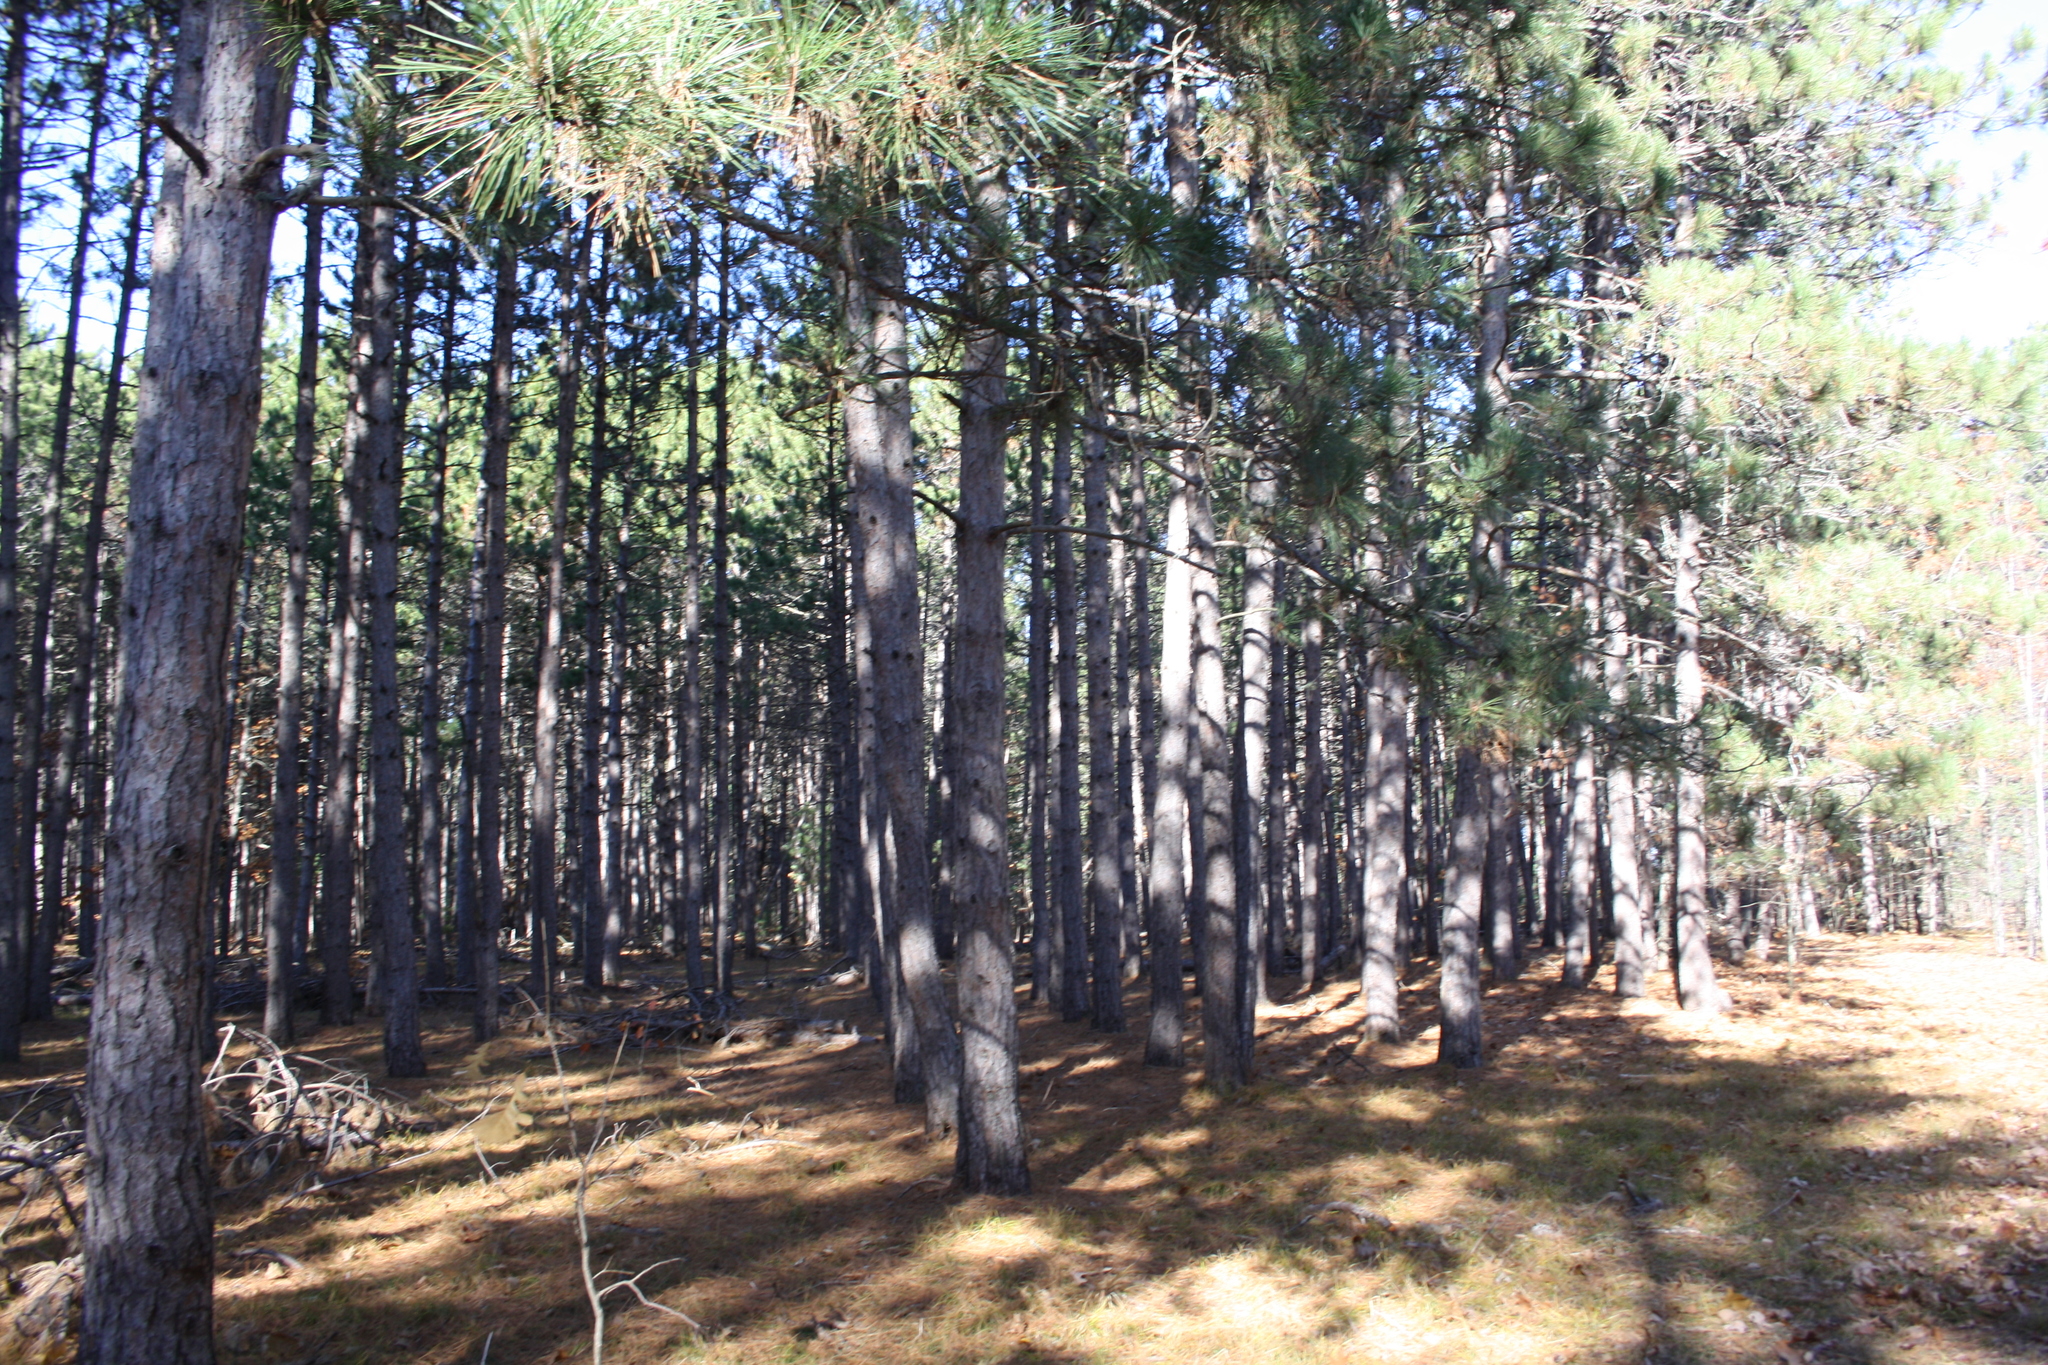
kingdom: Plantae
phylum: Tracheophyta
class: Pinopsida
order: Pinales
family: Pinaceae
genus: Pinus
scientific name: Pinus resinosa
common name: Norway pine
